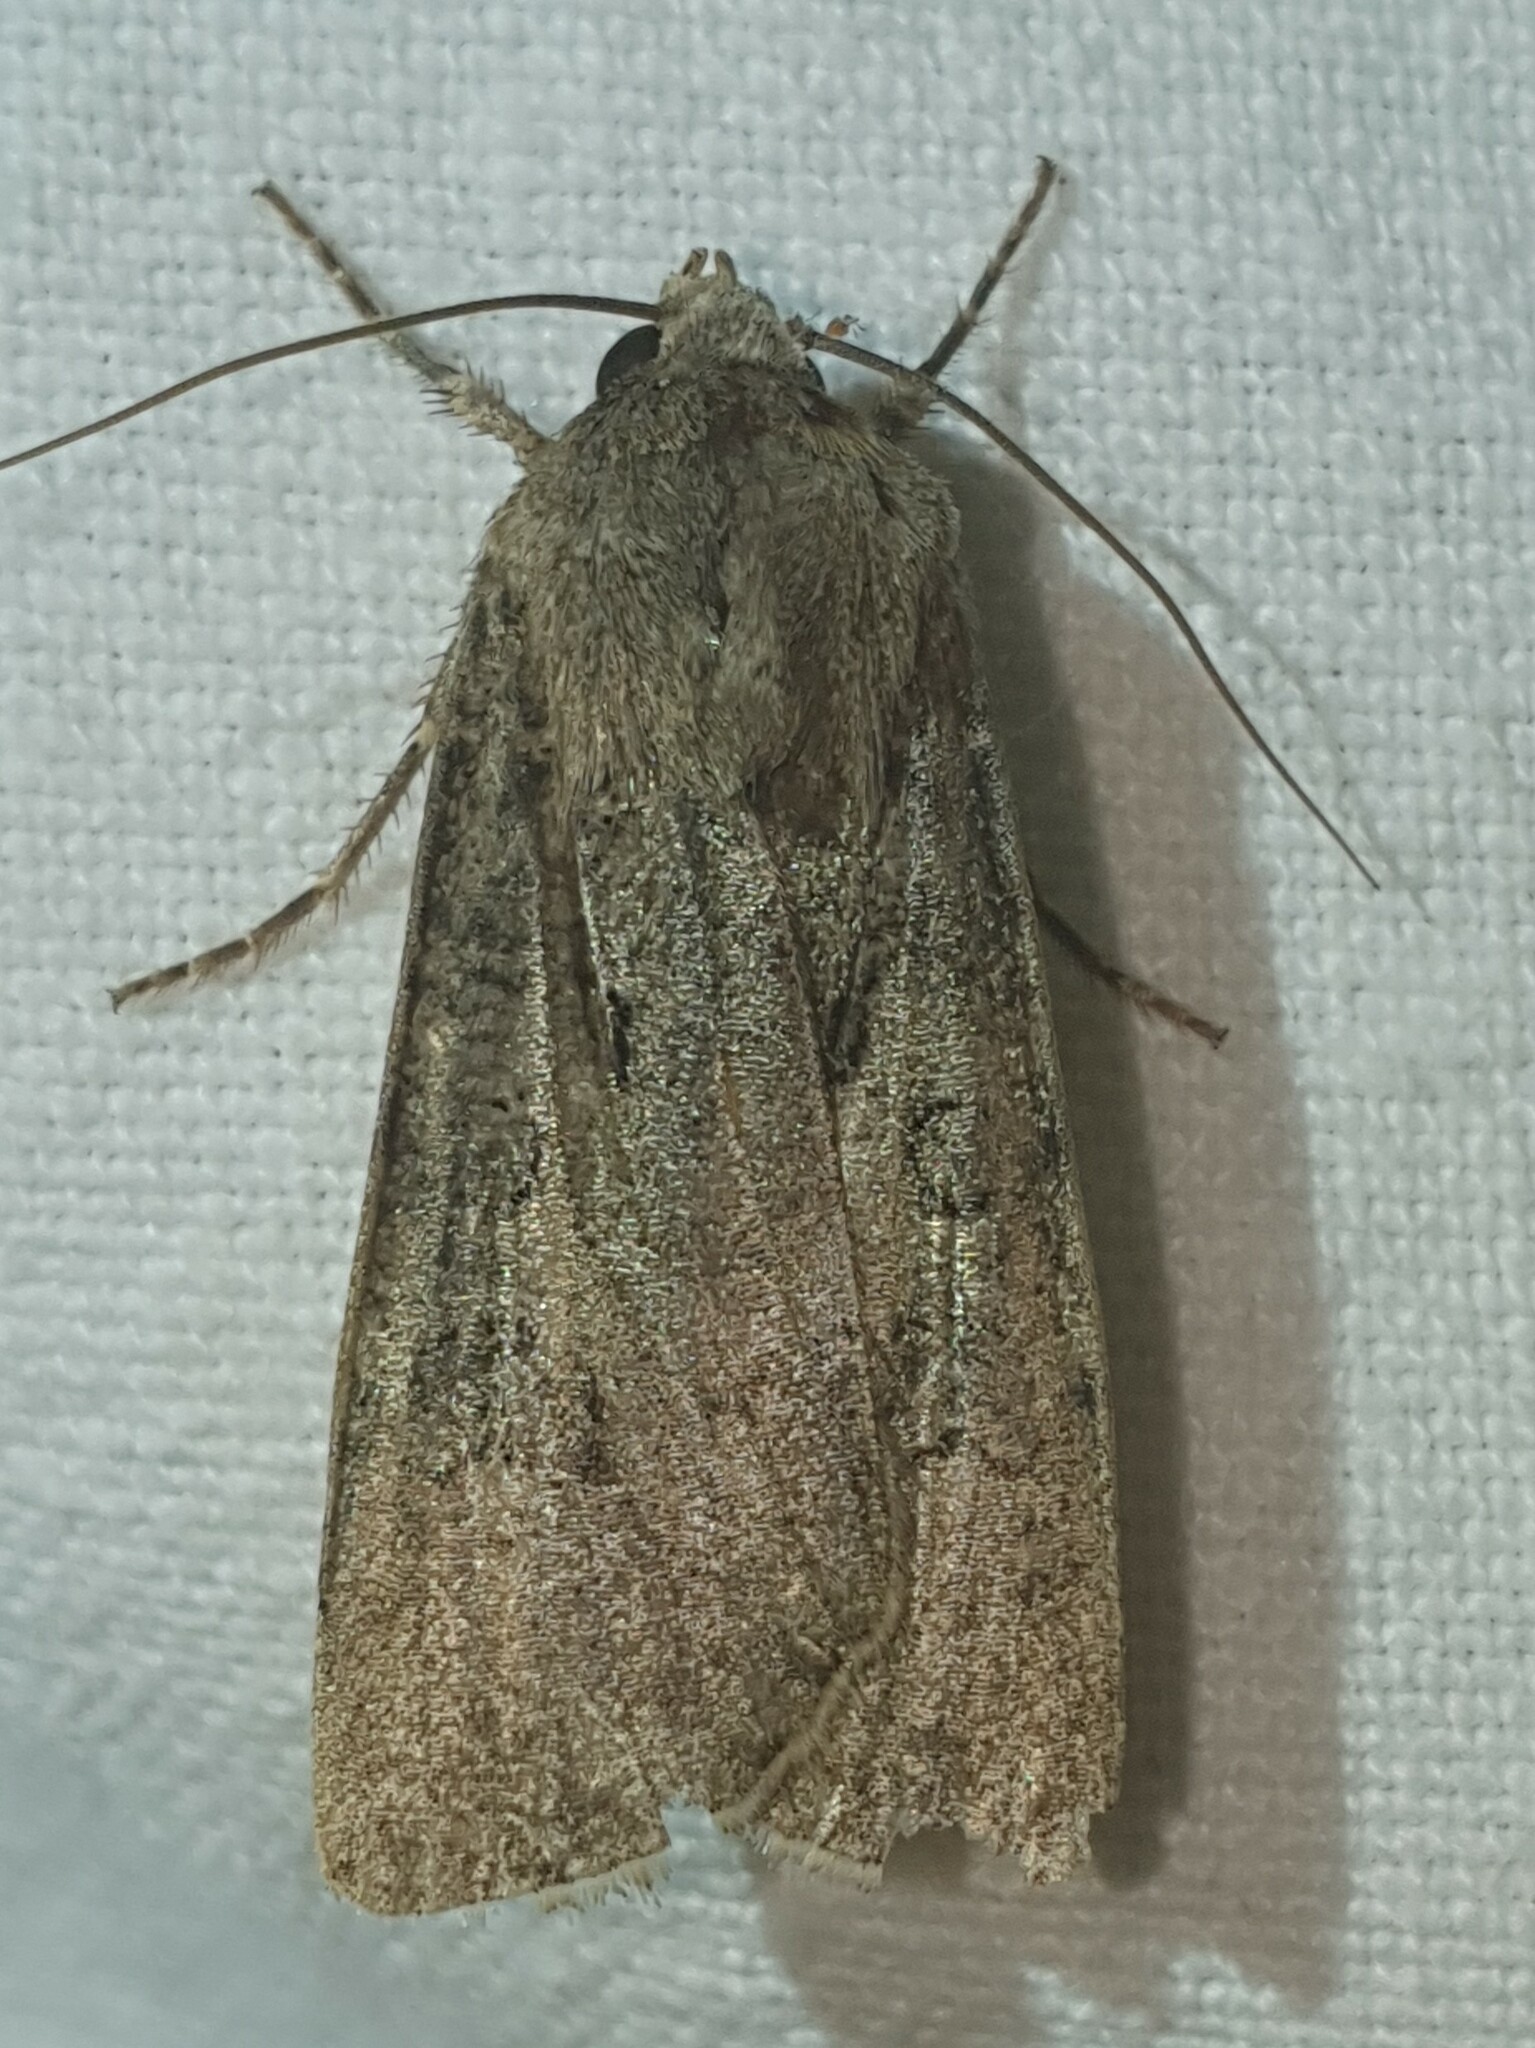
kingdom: Animalia
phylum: Arthropoda
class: Insecta
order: Lepidoptera
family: Noctuidae
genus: Agrotis
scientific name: Agrotis segetum
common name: Turnip moth
